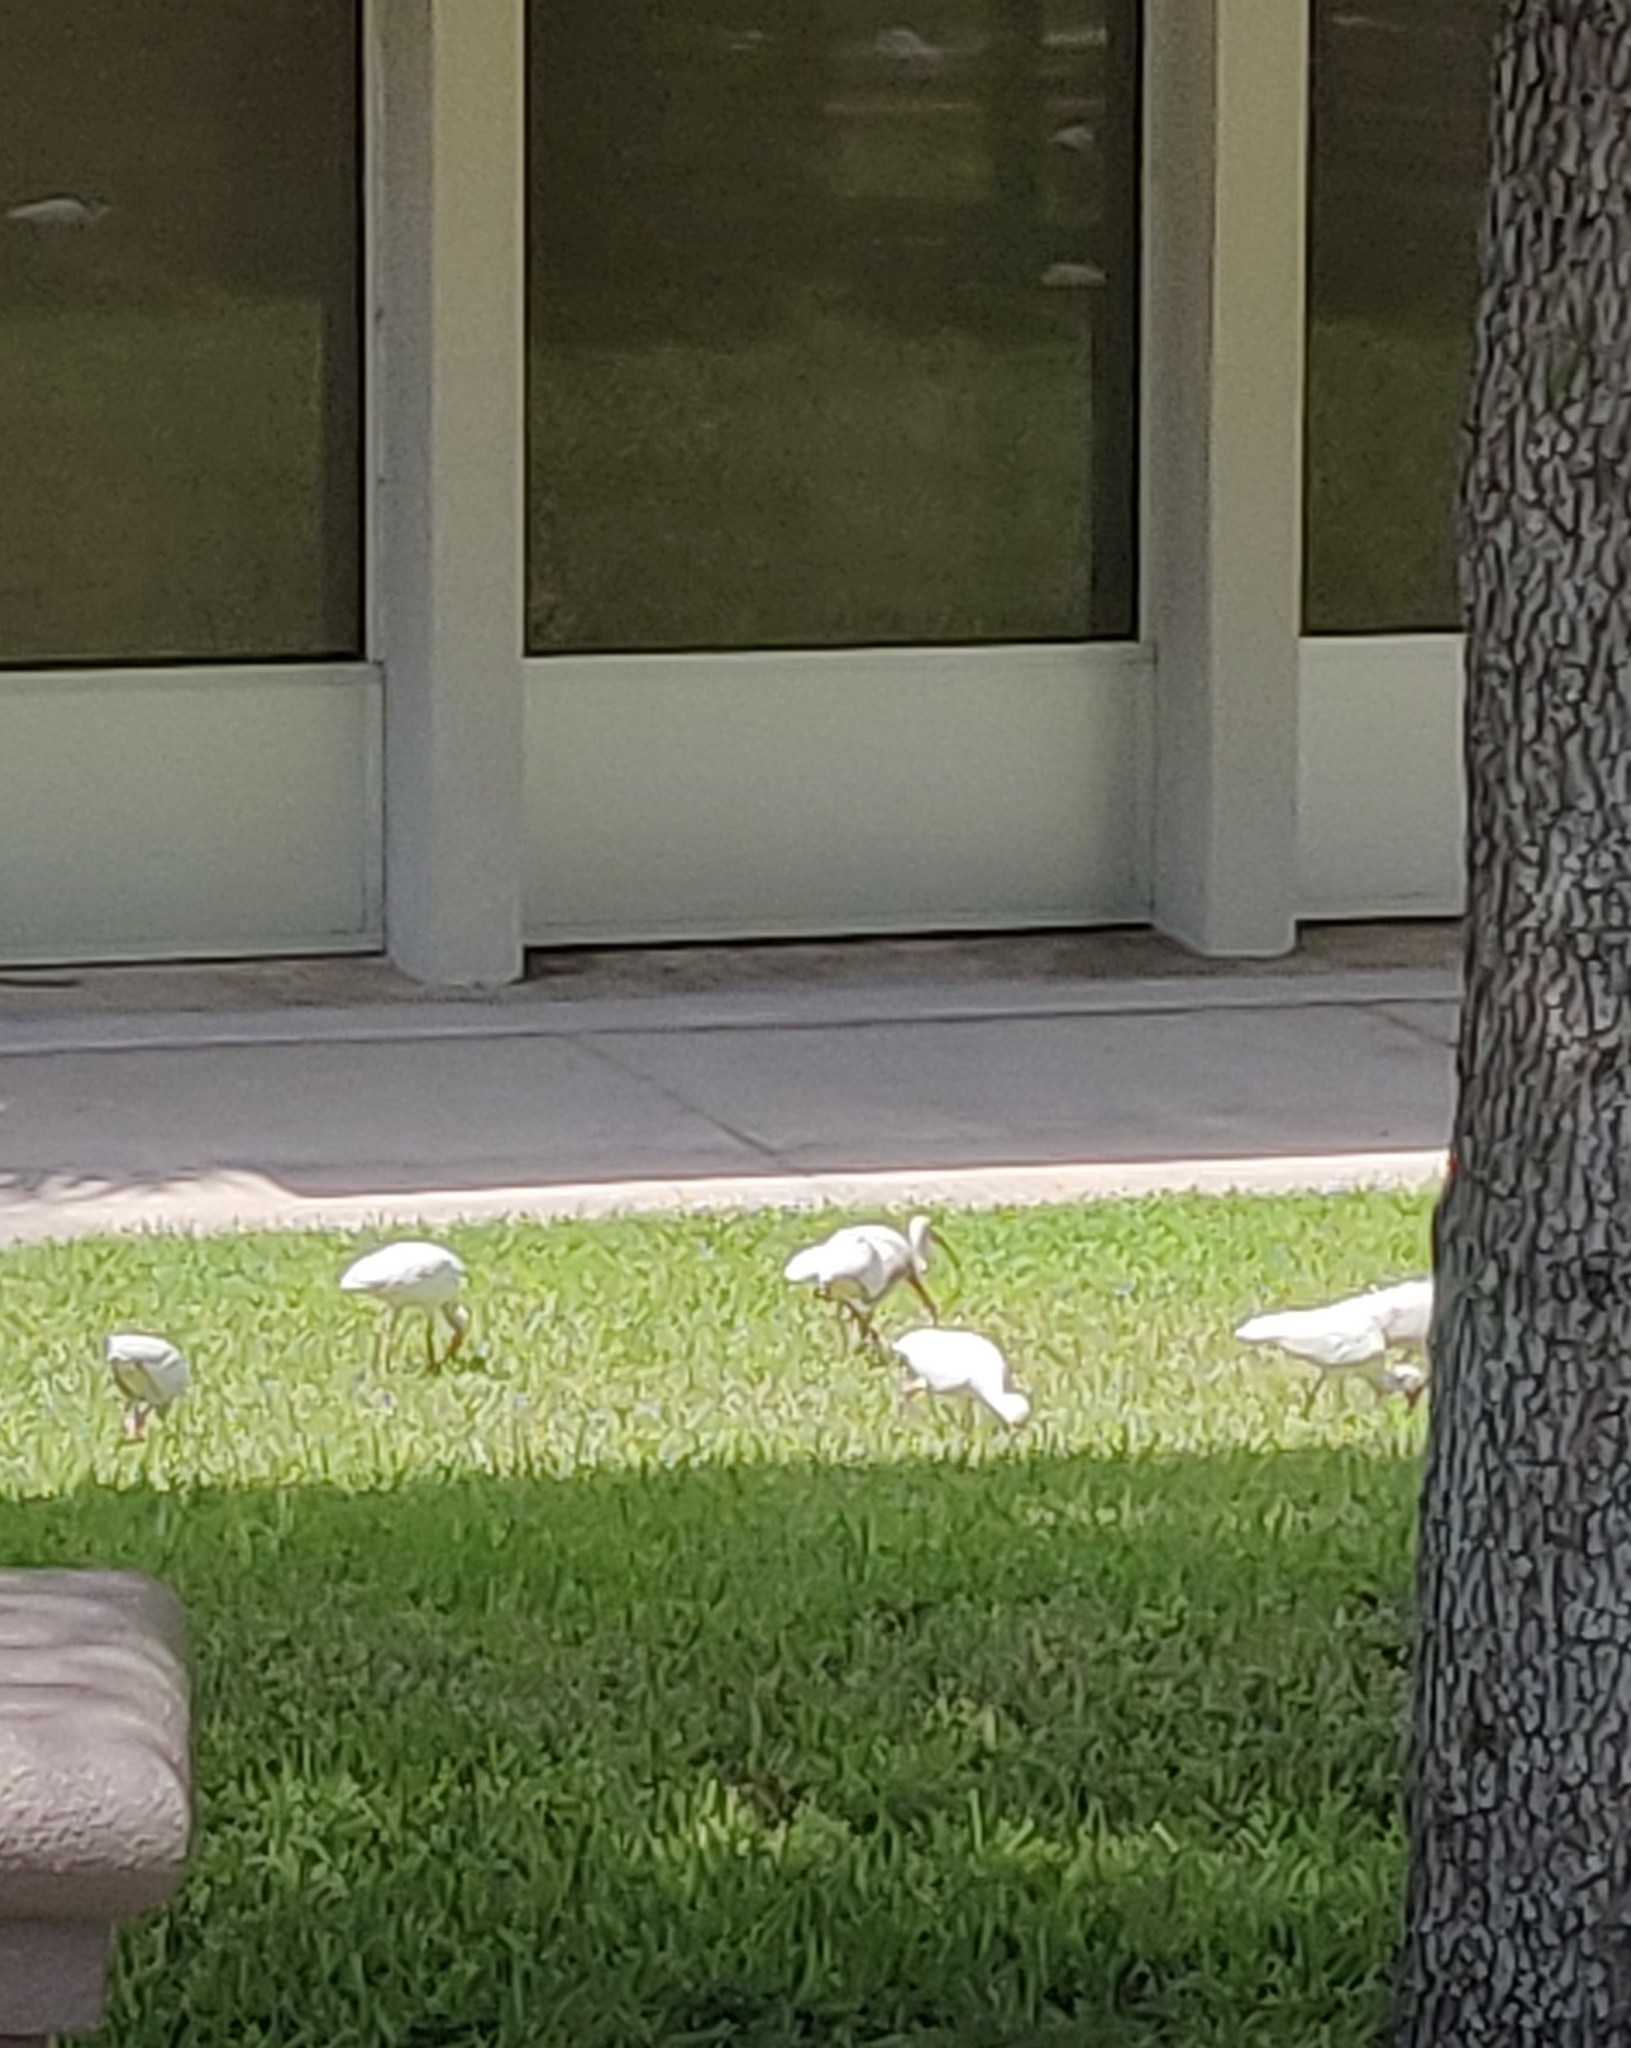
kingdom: Animalia
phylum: Chordata
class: Aves
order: Pelecaniformes
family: Threskiornithidae
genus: Eudocimus
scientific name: Eudocimus albus
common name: White ibis
